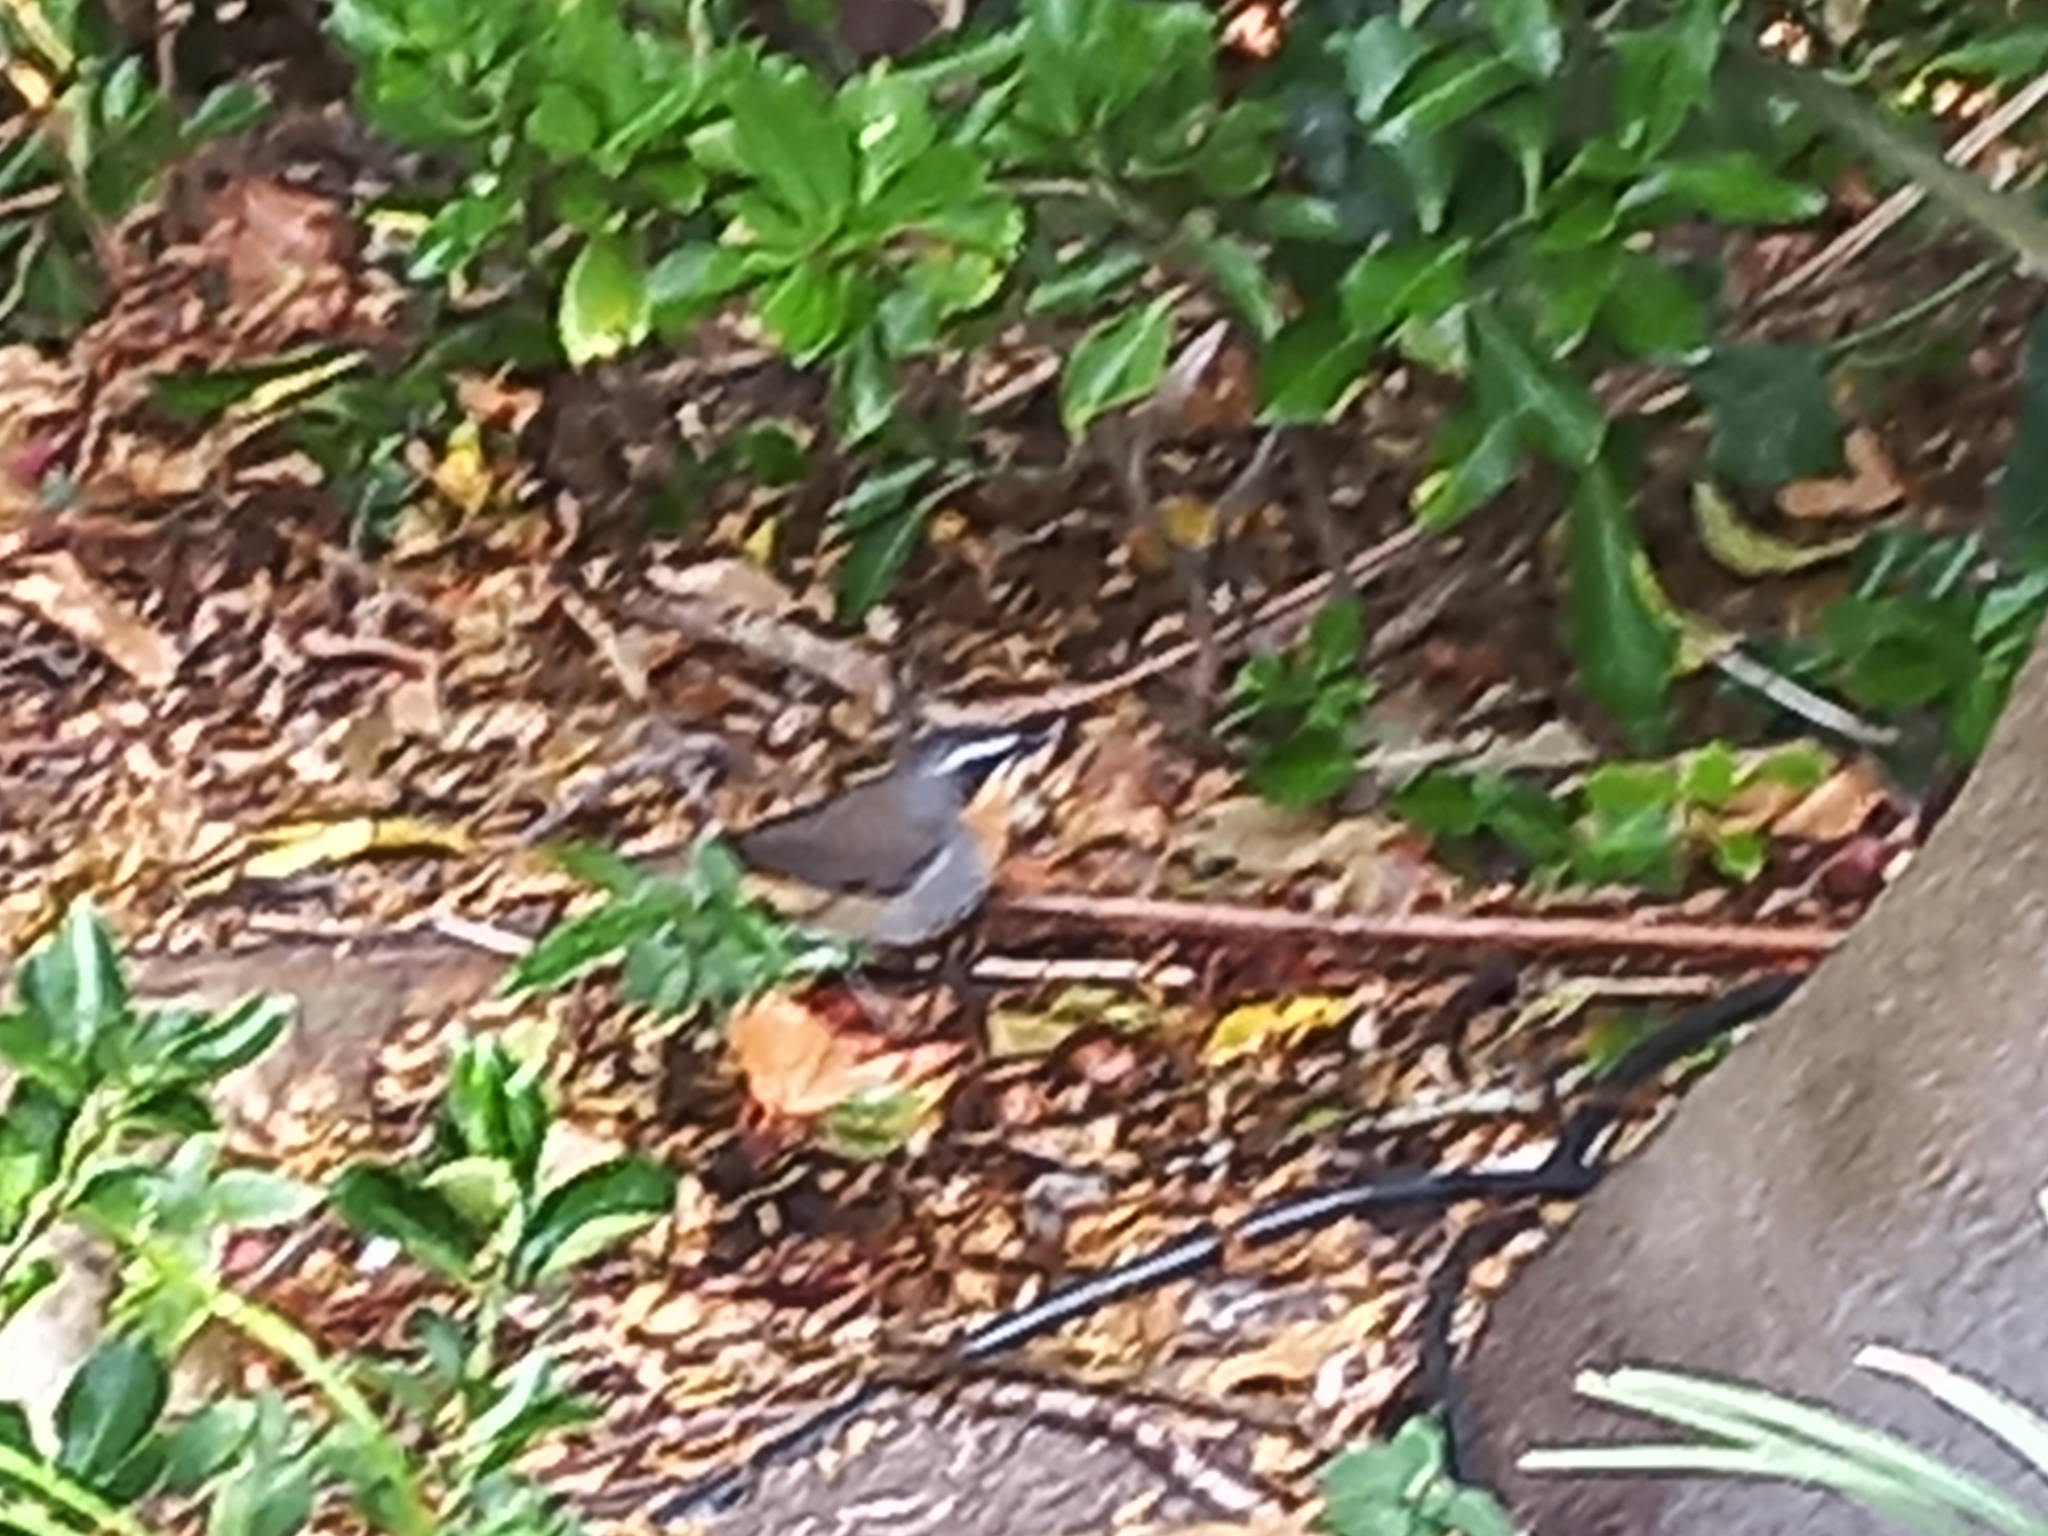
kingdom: Animalia
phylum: Chordata
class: Aves
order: Passeriformes
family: Muscicapidae
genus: Cossypha
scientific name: Cossypha caffra
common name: Cape robin-chat
